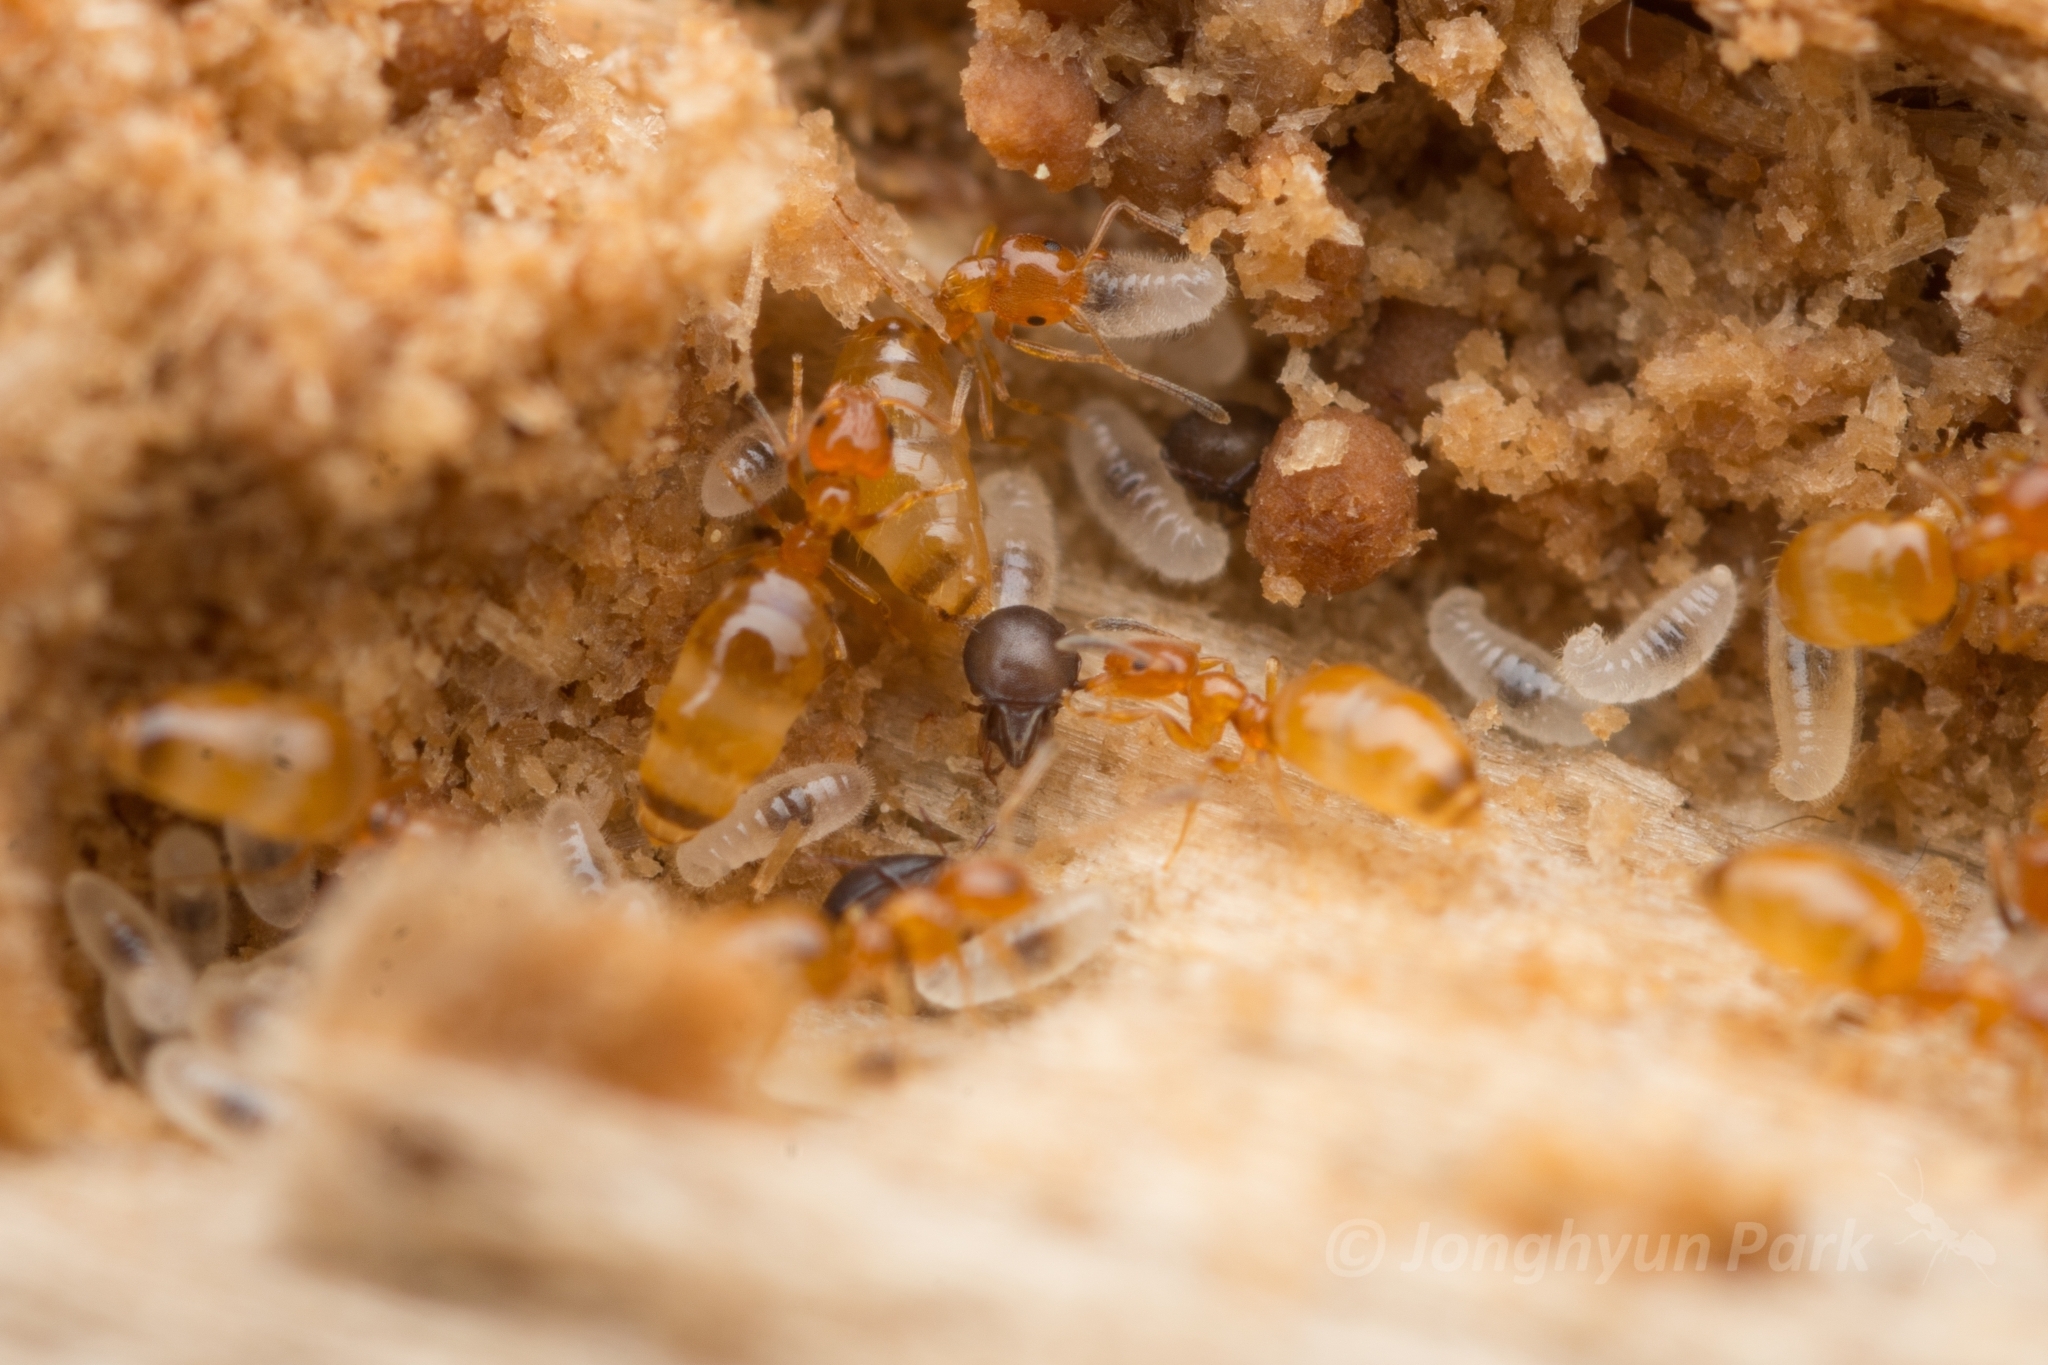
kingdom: Animalia
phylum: Arthropoda
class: Insecta
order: Hymenoptera
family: Formicidae
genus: Plagiolepis
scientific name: Plagiolepis flavescens
